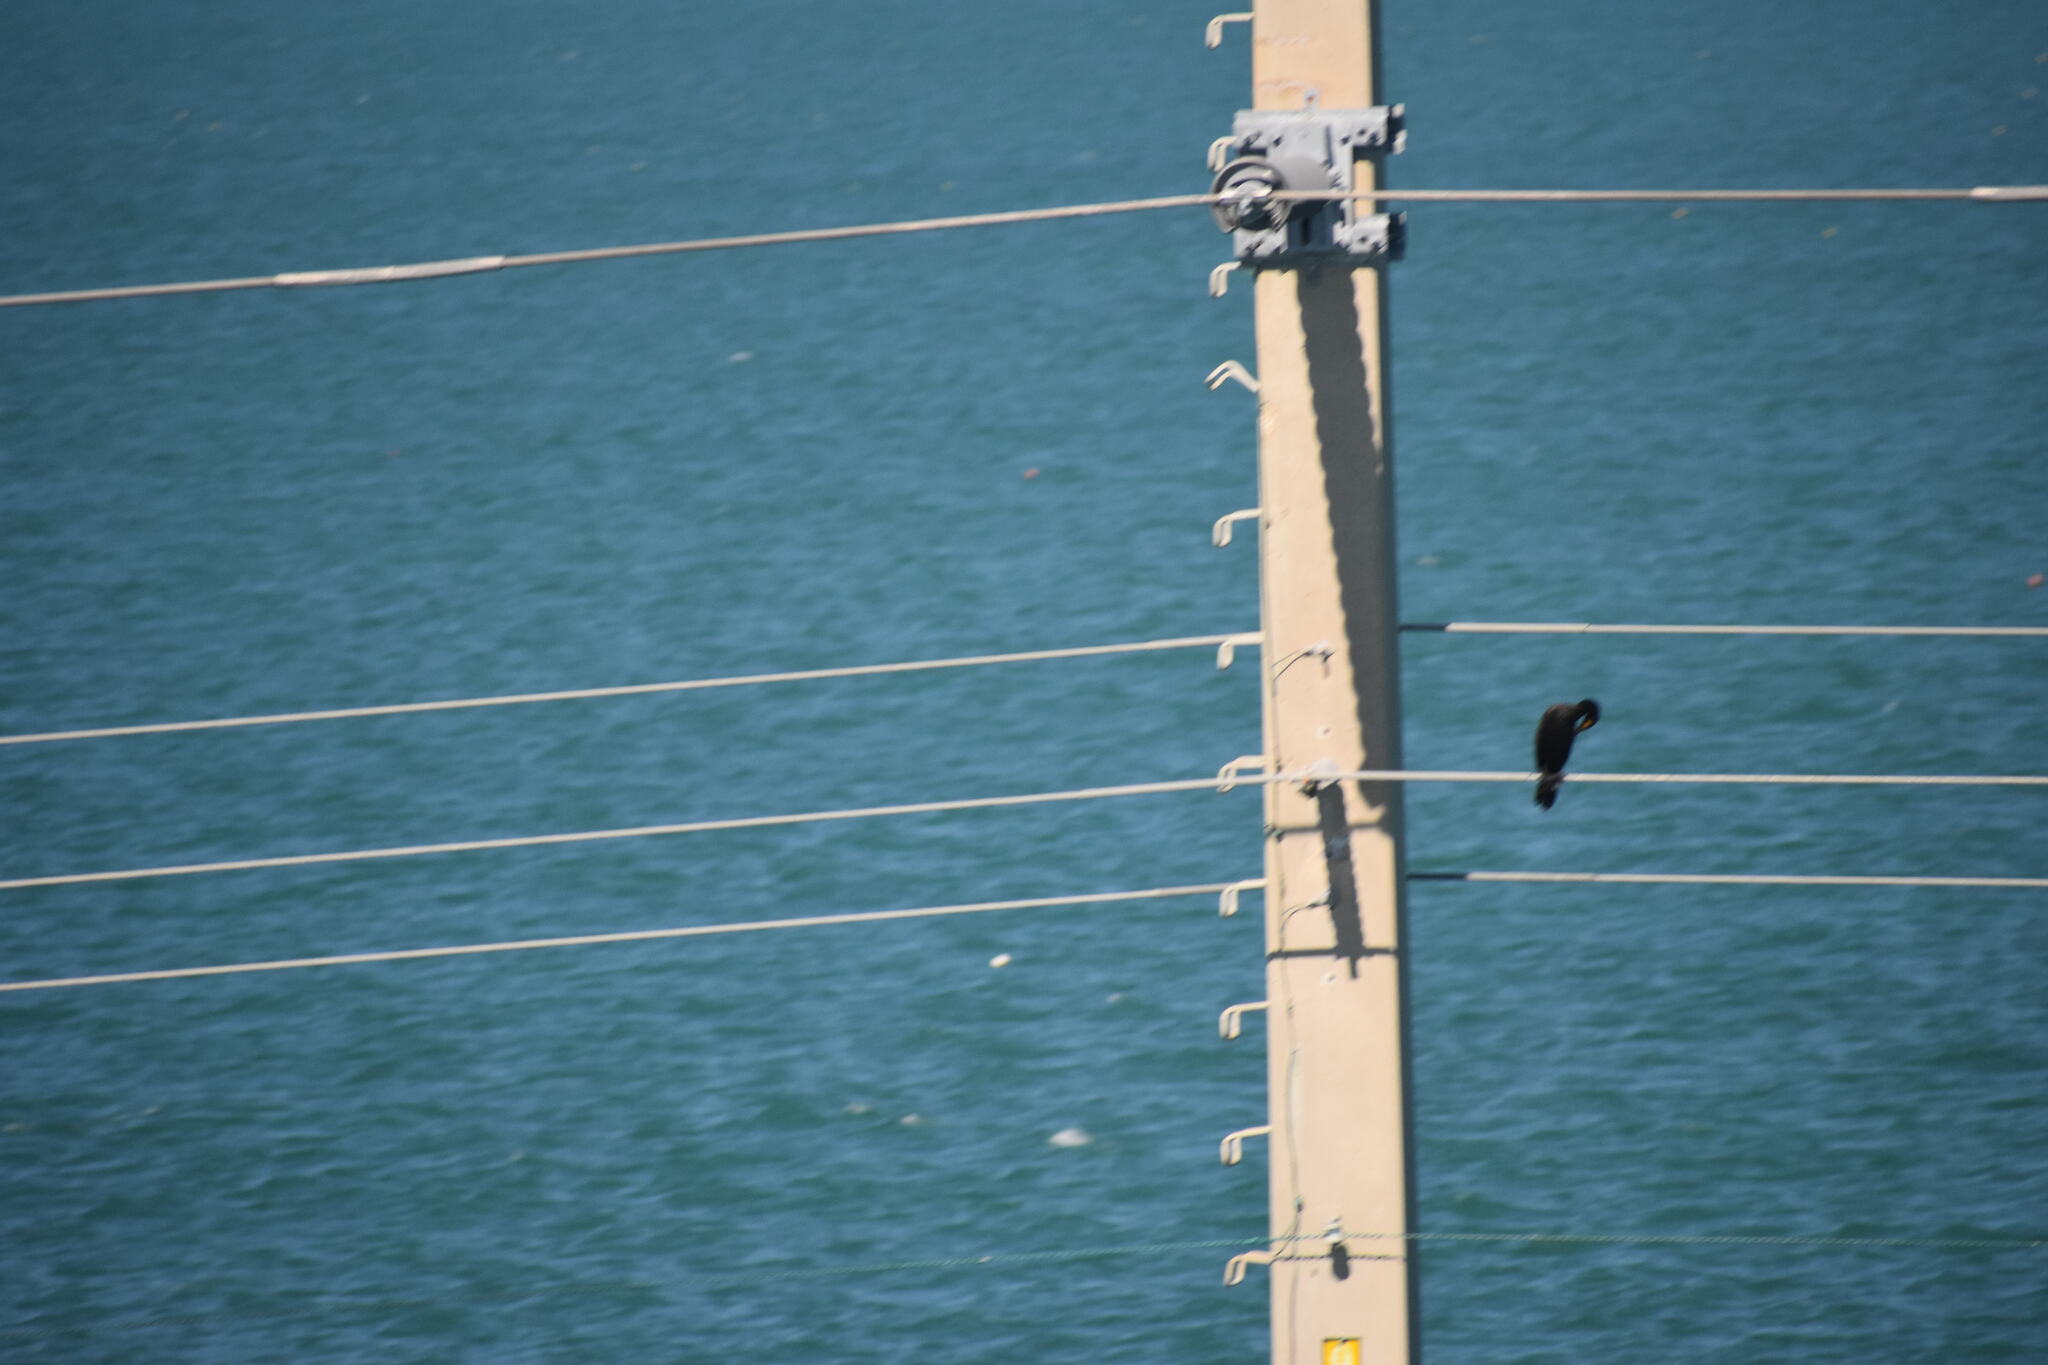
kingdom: Animalia
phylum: Chordata
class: Aves
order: Suliformes
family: Phalacrocoracidae
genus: Phalacrocorax
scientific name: Phalacrocorax auritus
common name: Double-crested cormorant
